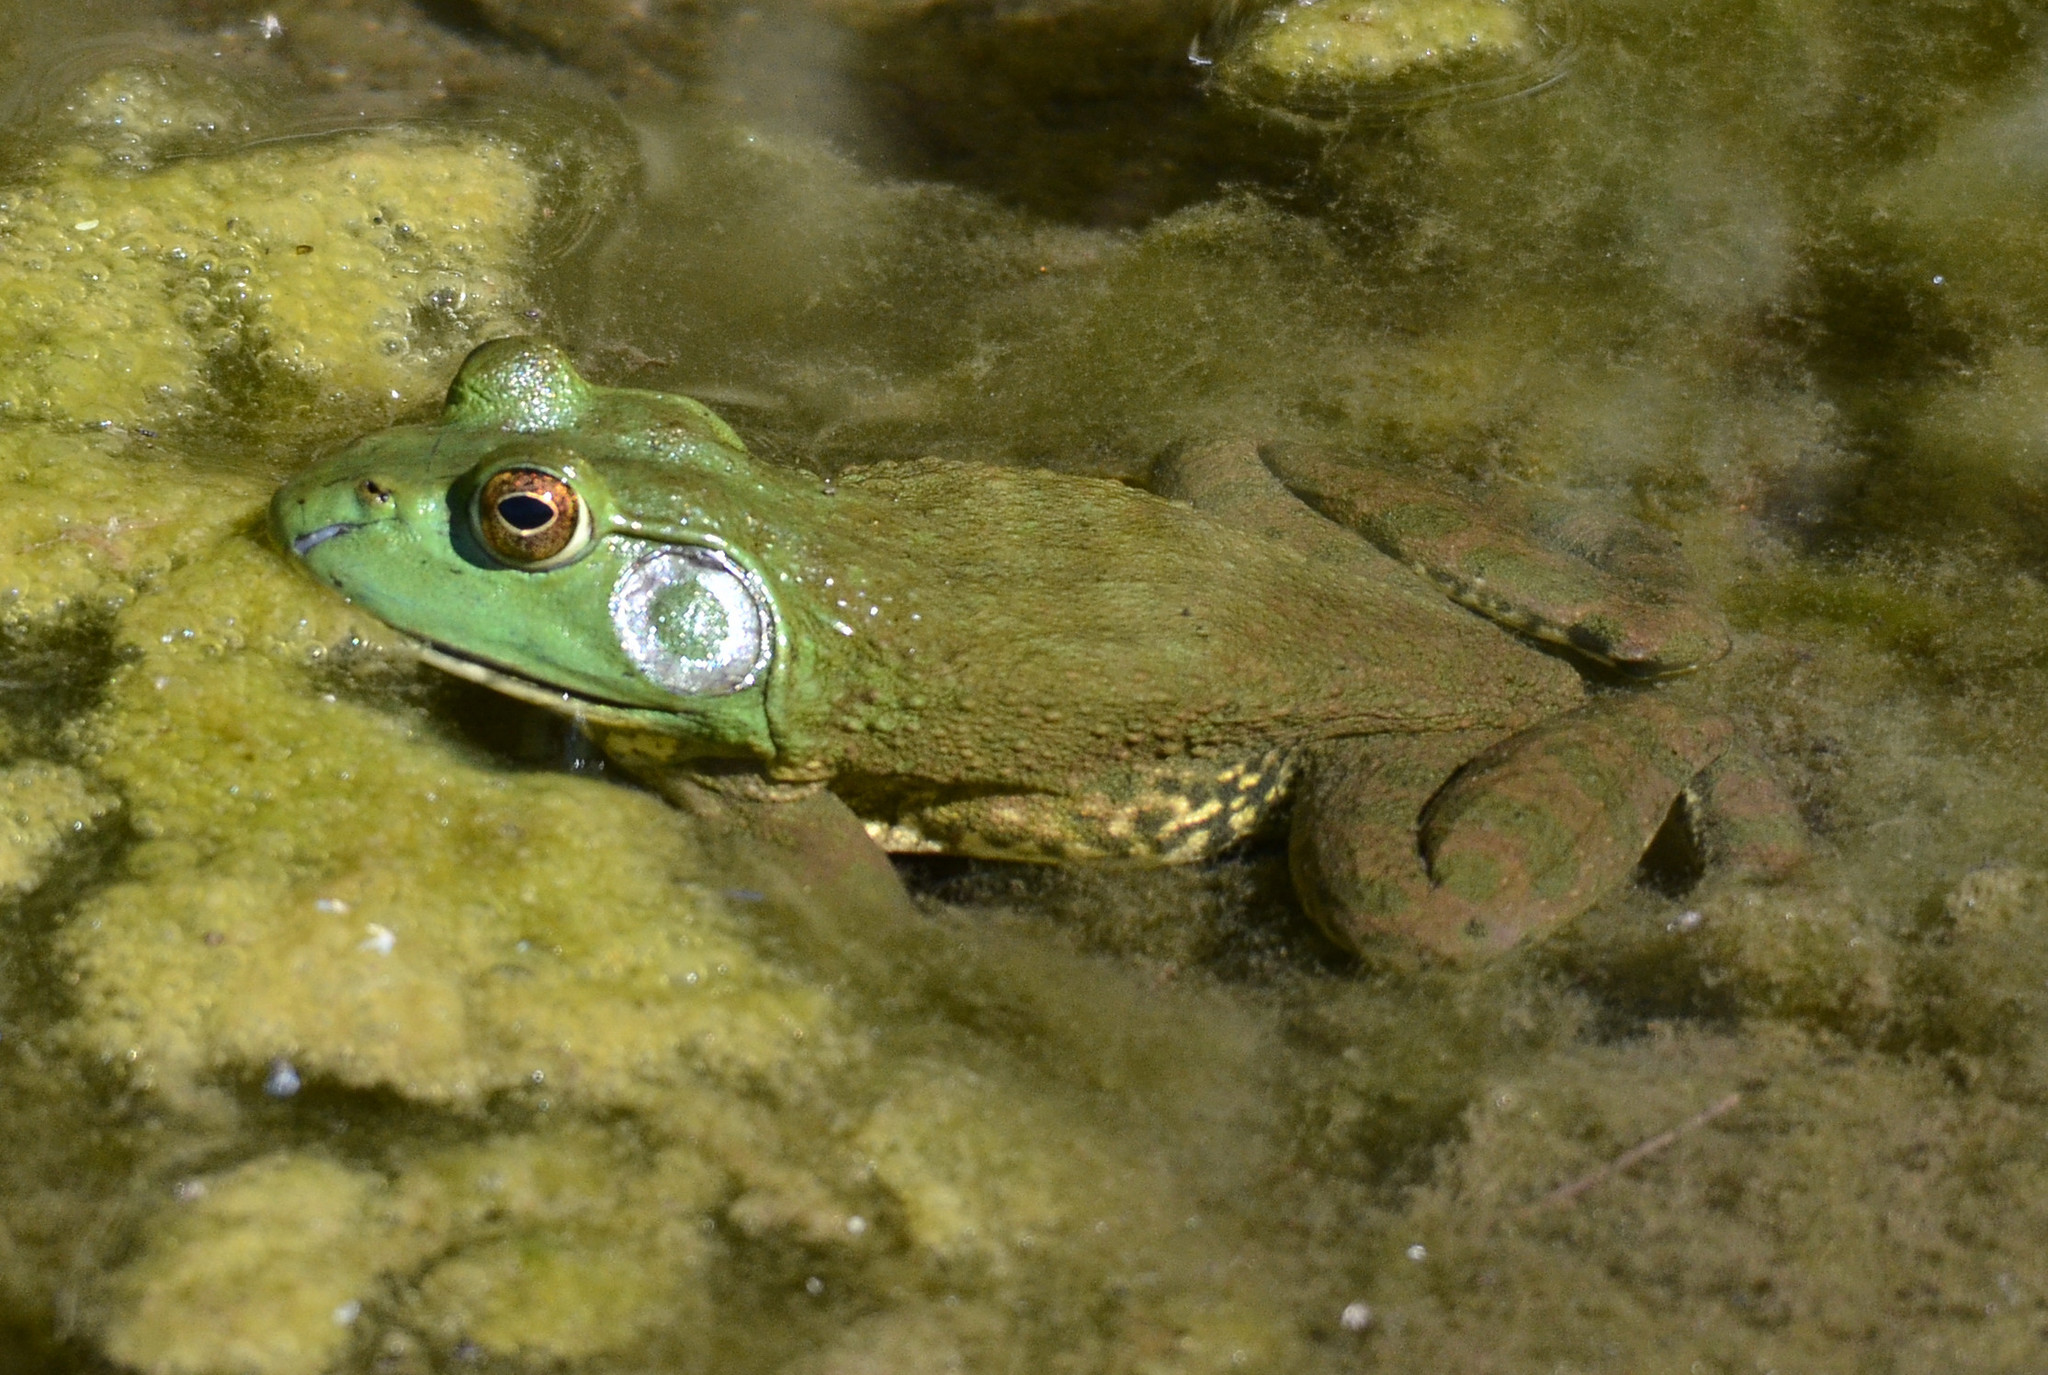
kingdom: Animalia
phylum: Chordata
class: Amphibia
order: Anura
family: Ranidae
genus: Lithobates
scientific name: Lithobates catesbeianus
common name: American bullfrog
